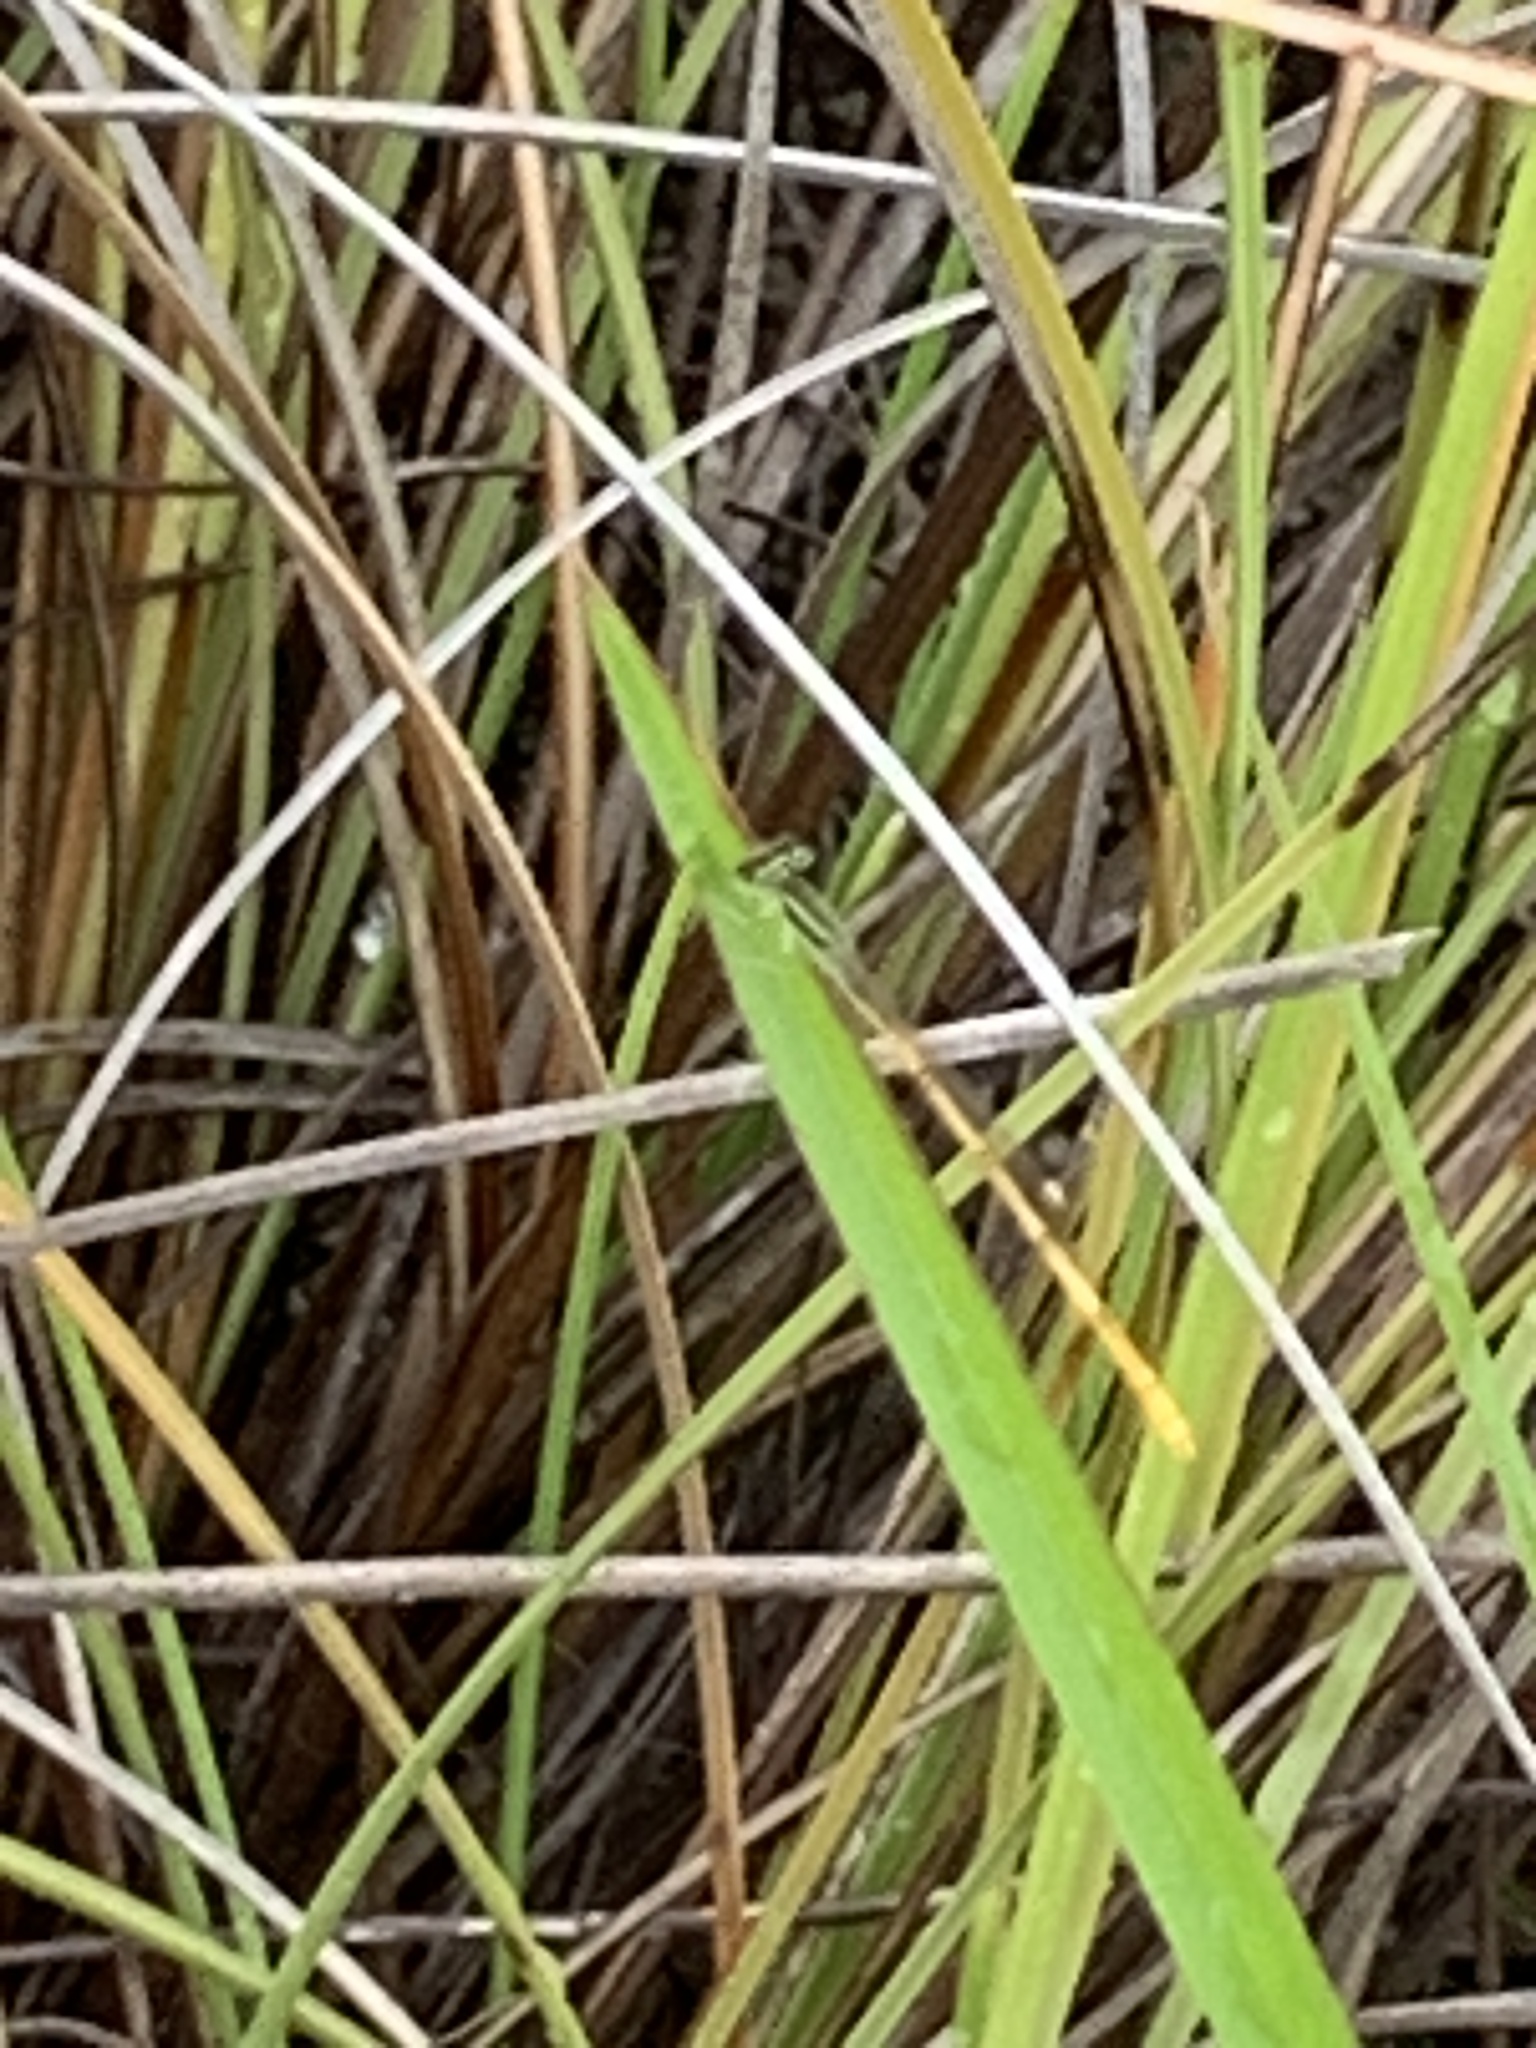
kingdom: Animalia
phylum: Arthropoda
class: Insecta
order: Odonata
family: Coenagrionidae
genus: Ischnura
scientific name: Ischnura hastata
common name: Citrine forktail
